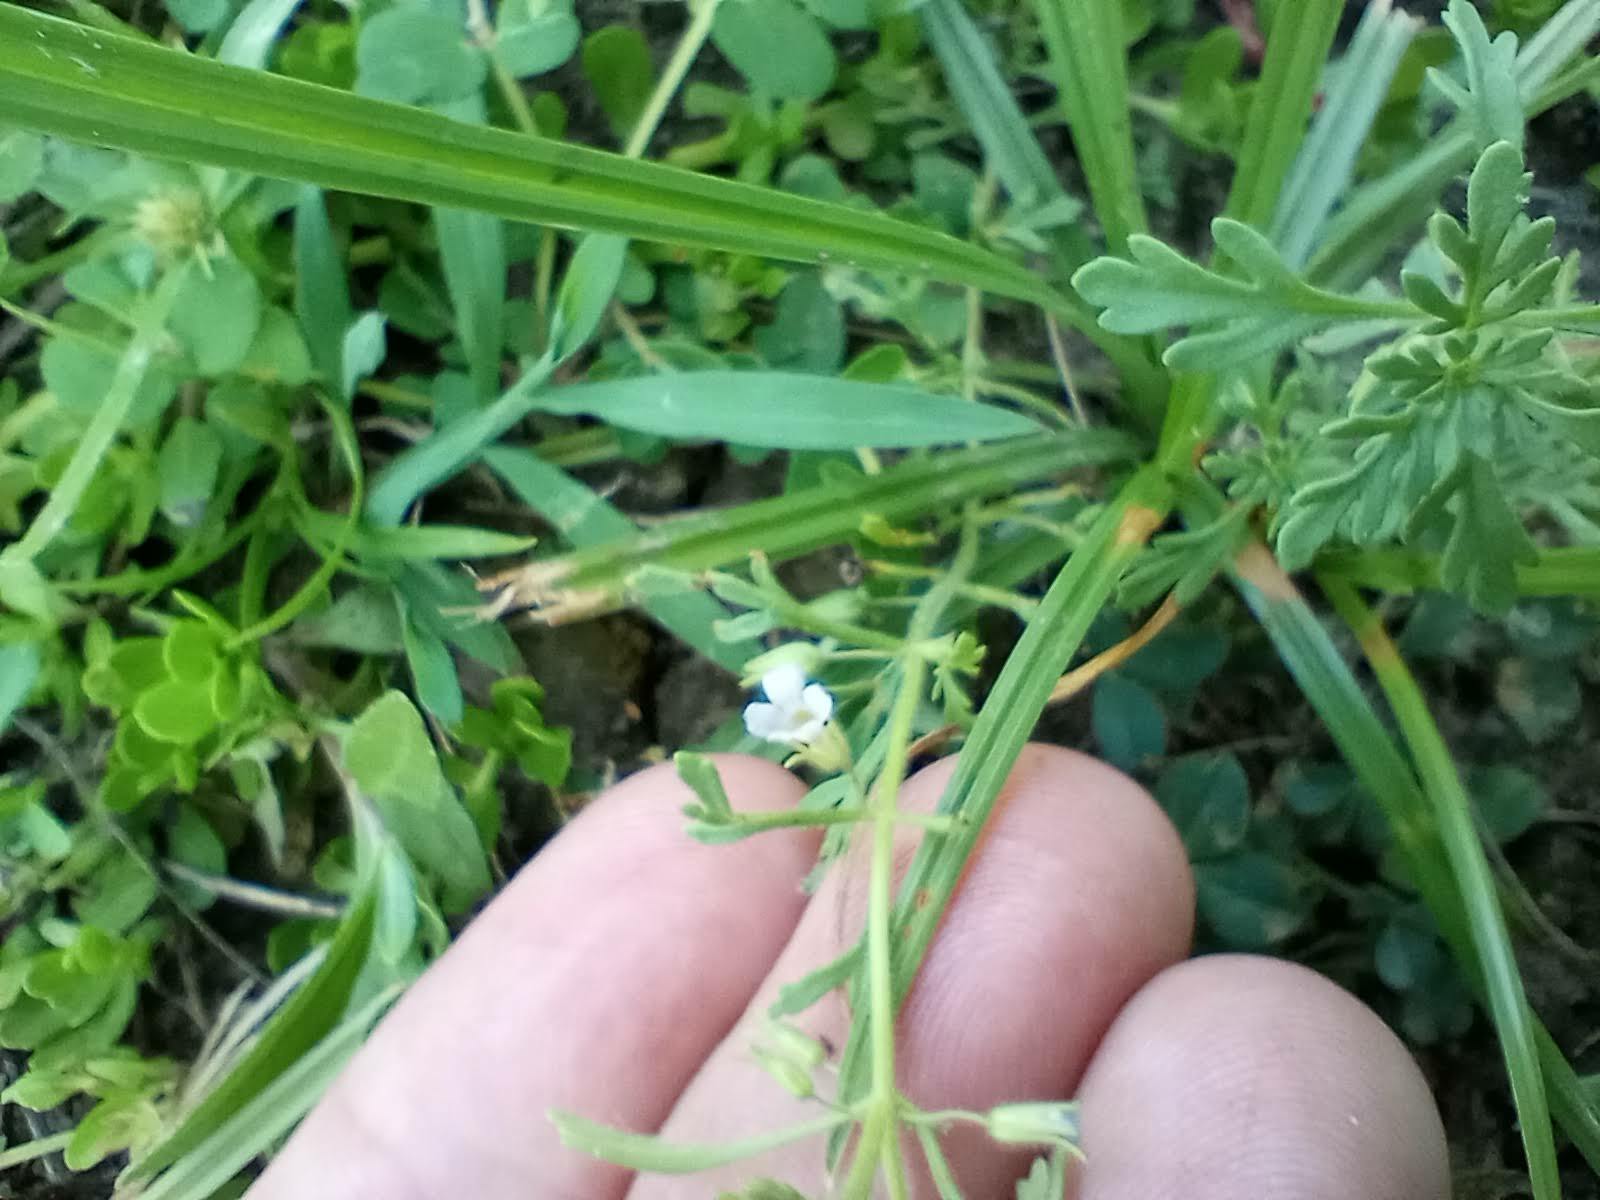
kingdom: Plantae
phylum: Tracheophyta
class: Magnoliopsida
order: Lamiales
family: Plantaginaceae
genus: Leucospora
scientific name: Leucospora multifida
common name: Narrow-leaf paleseed
